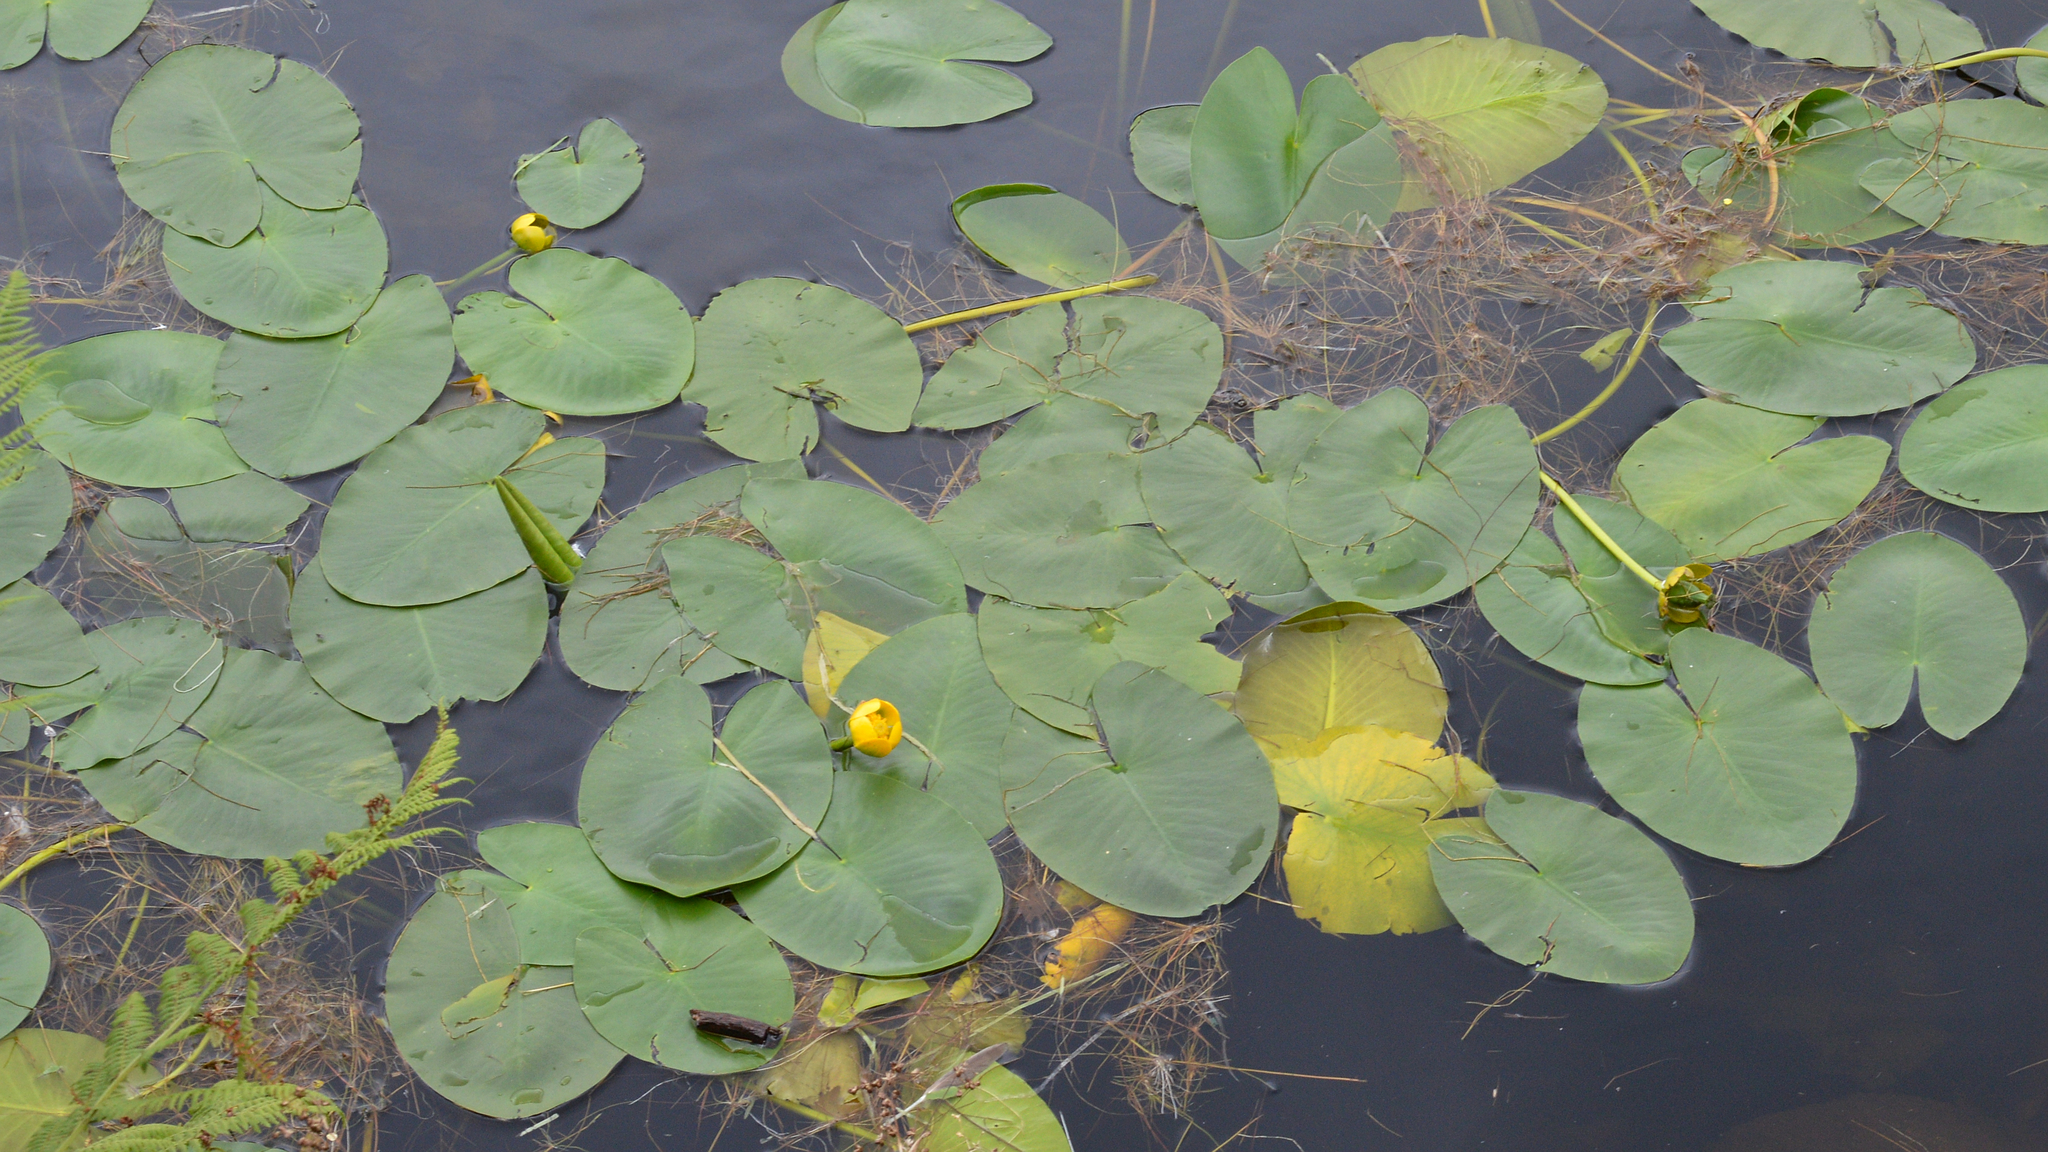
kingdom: Plantae
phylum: Tracheophyta
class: Magnoliopsida
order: Nymphaeales
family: Nymphaeaceae
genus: Nuphar
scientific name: Nuphar lutea
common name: Yellow water-lily
